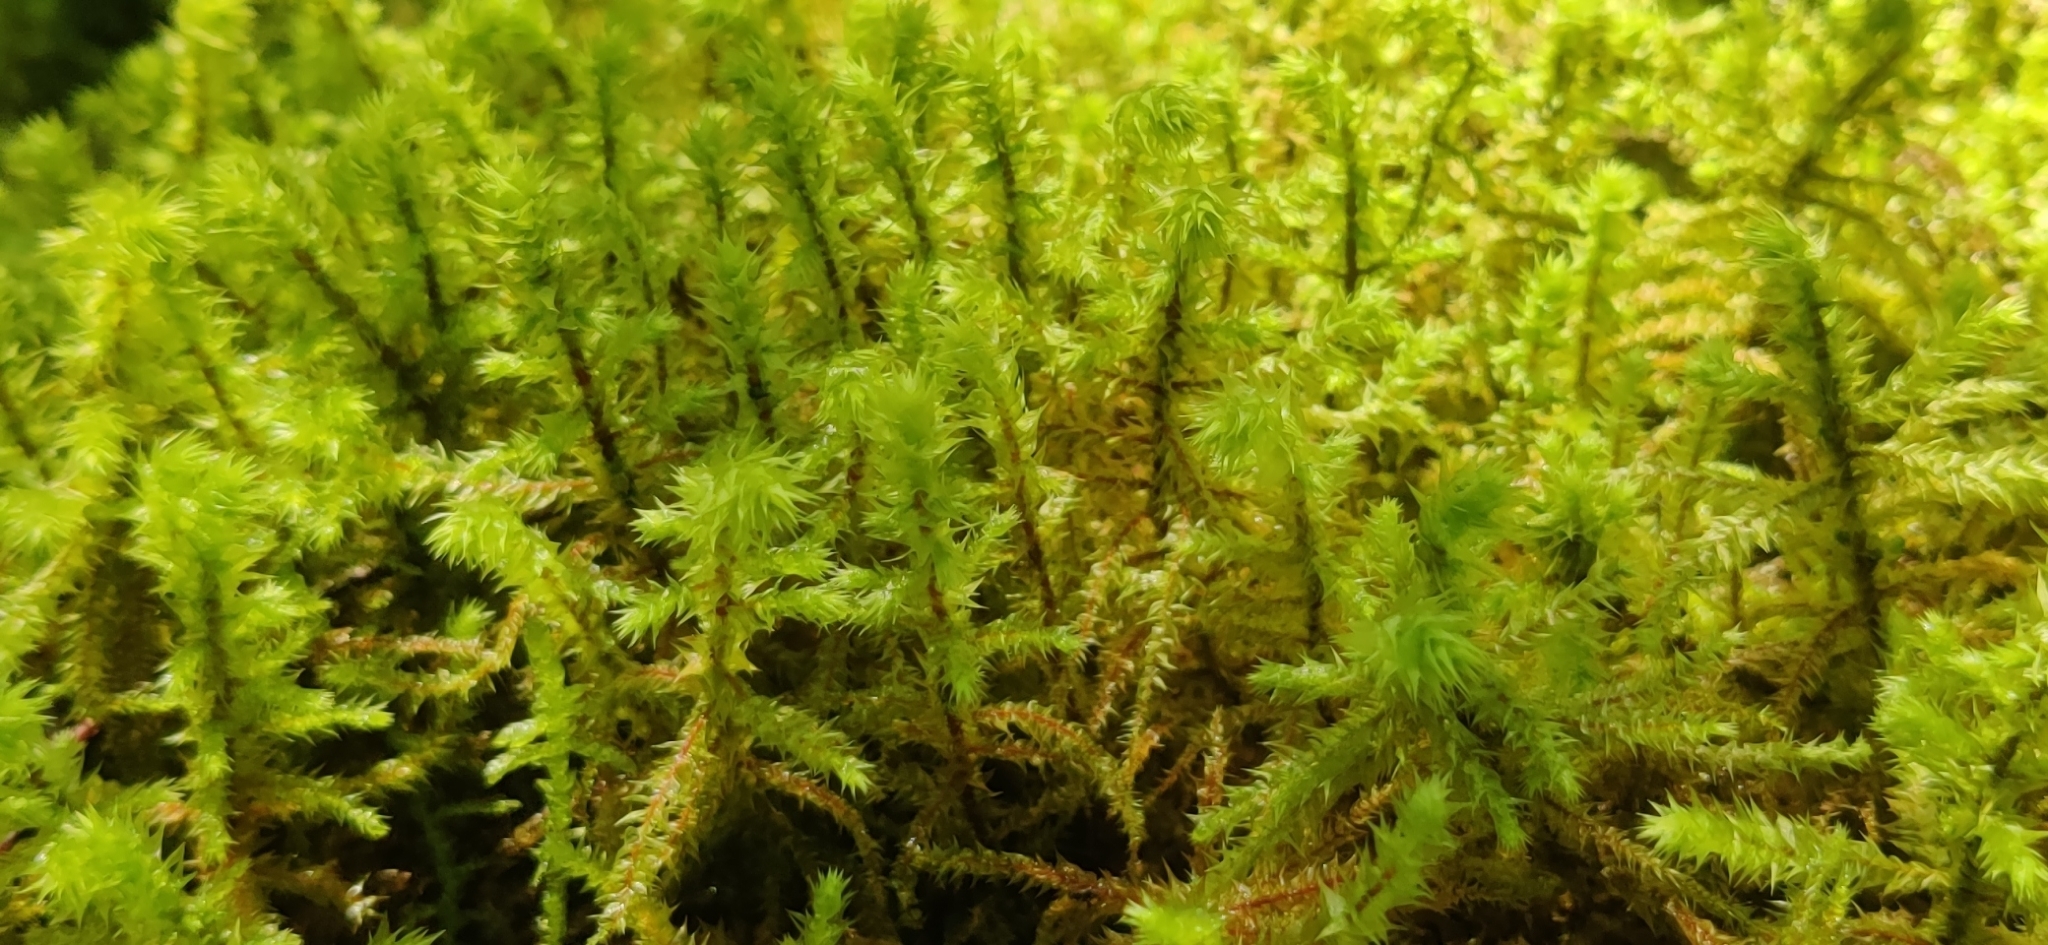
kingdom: Plantae
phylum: Bryophyta
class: Bryopsida
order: Hypnales
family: Hylocomiaceae
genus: Hylocomiadelphus
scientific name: Hylocomiadelphus triquetrus
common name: Rough goose neck moss
